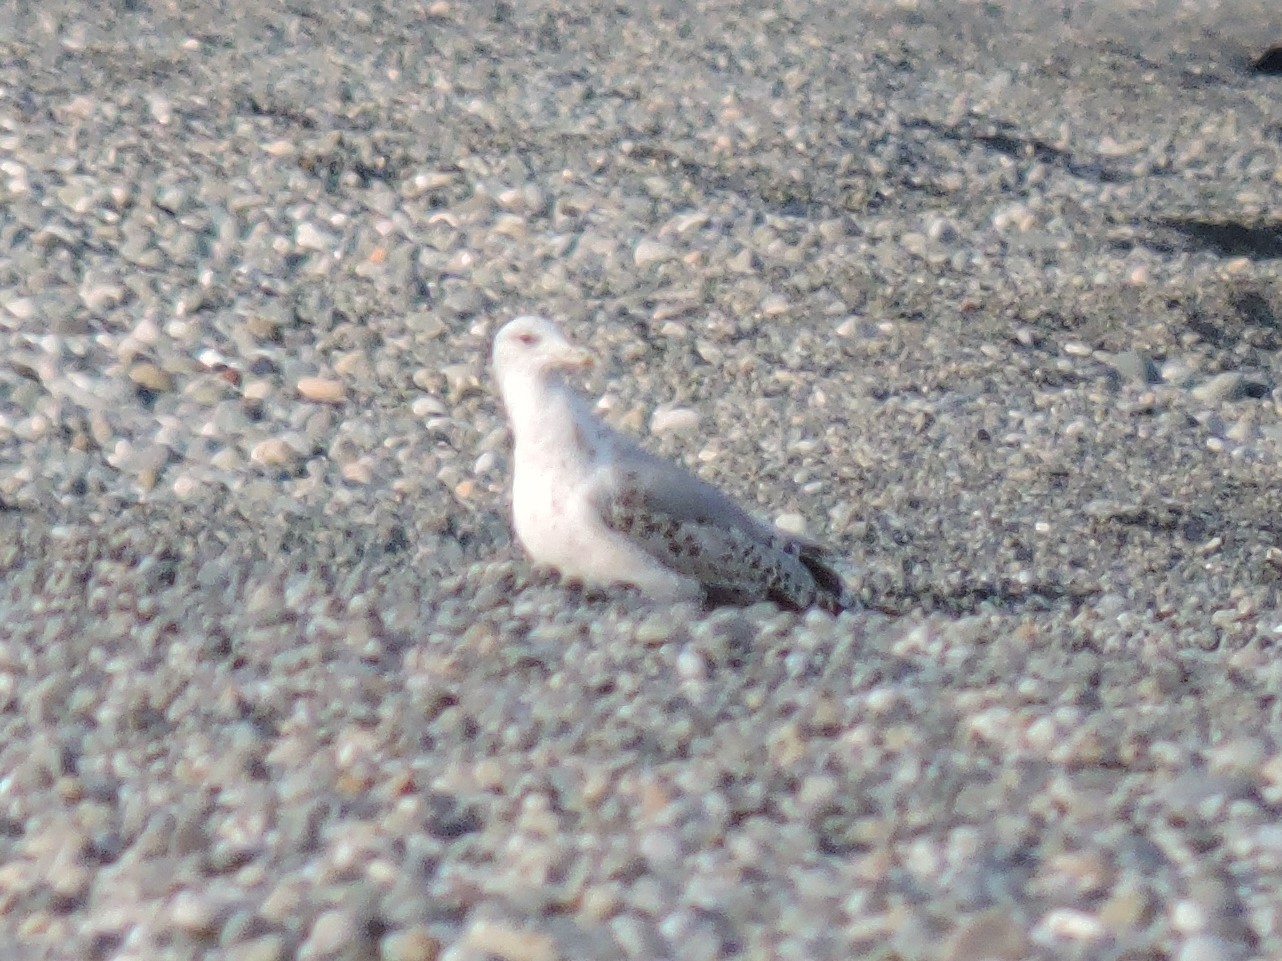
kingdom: Animalia
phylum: Chordata
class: Aves
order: Charadriiformes
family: Laridae
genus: Larus
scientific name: Larus michahellis
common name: Yellow-legged gull
